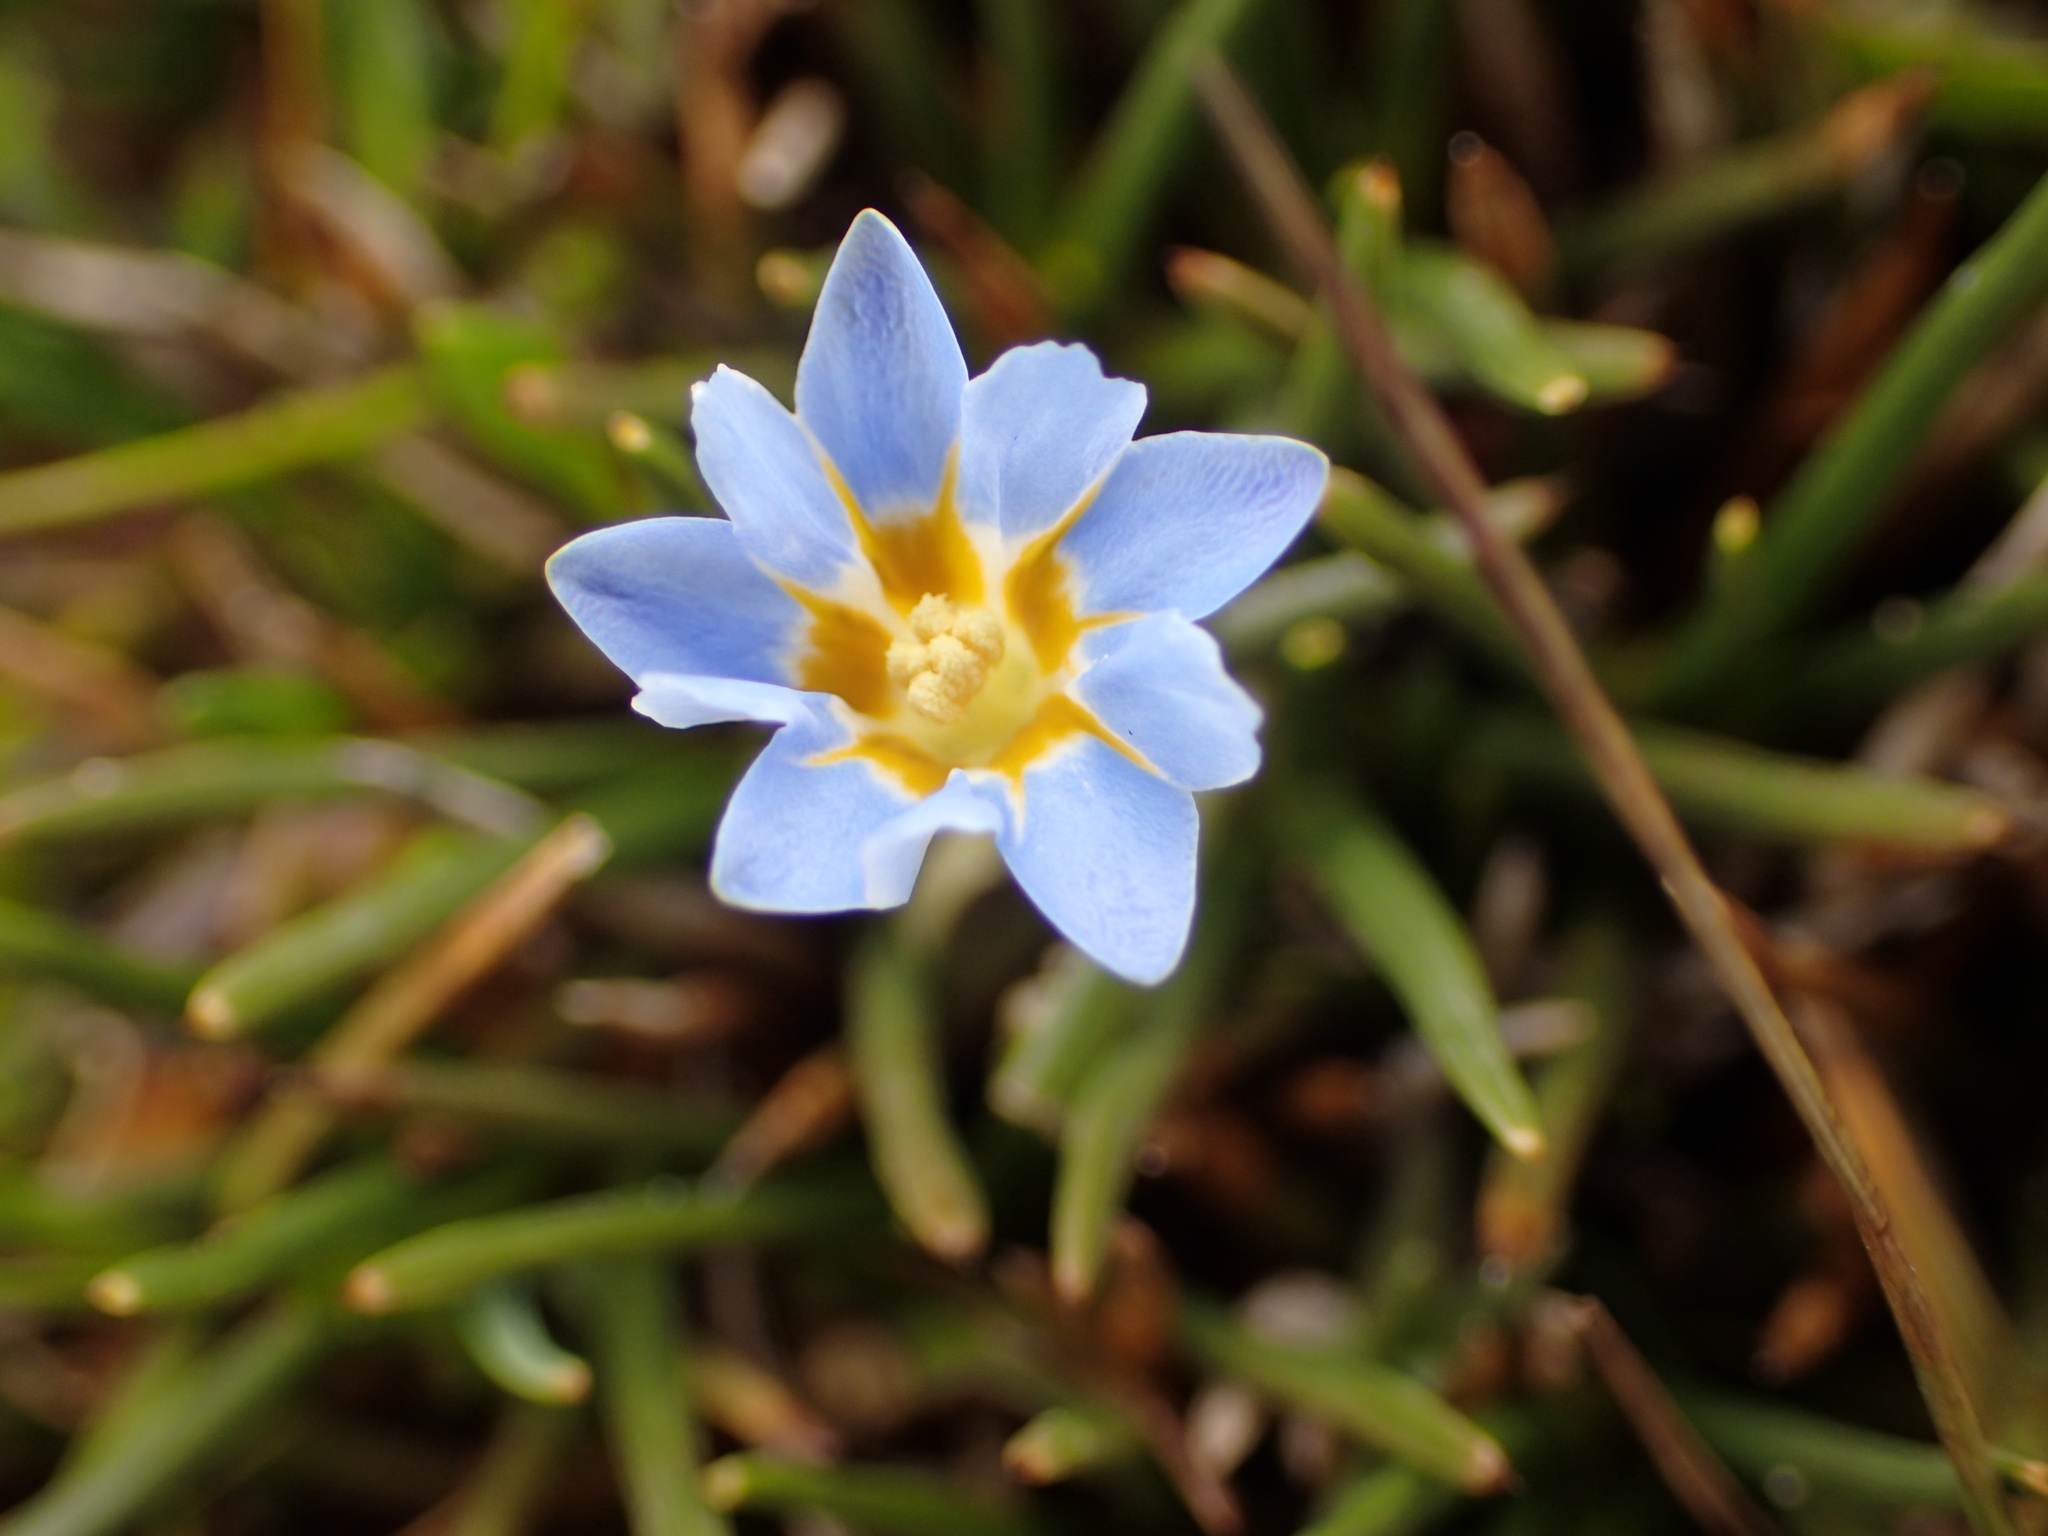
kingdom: Plantae
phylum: Tracheophyta
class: Magnoliopsida
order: Gentianales
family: Gentianaceae
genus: Gentiana
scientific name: Gentiana sedifolia
